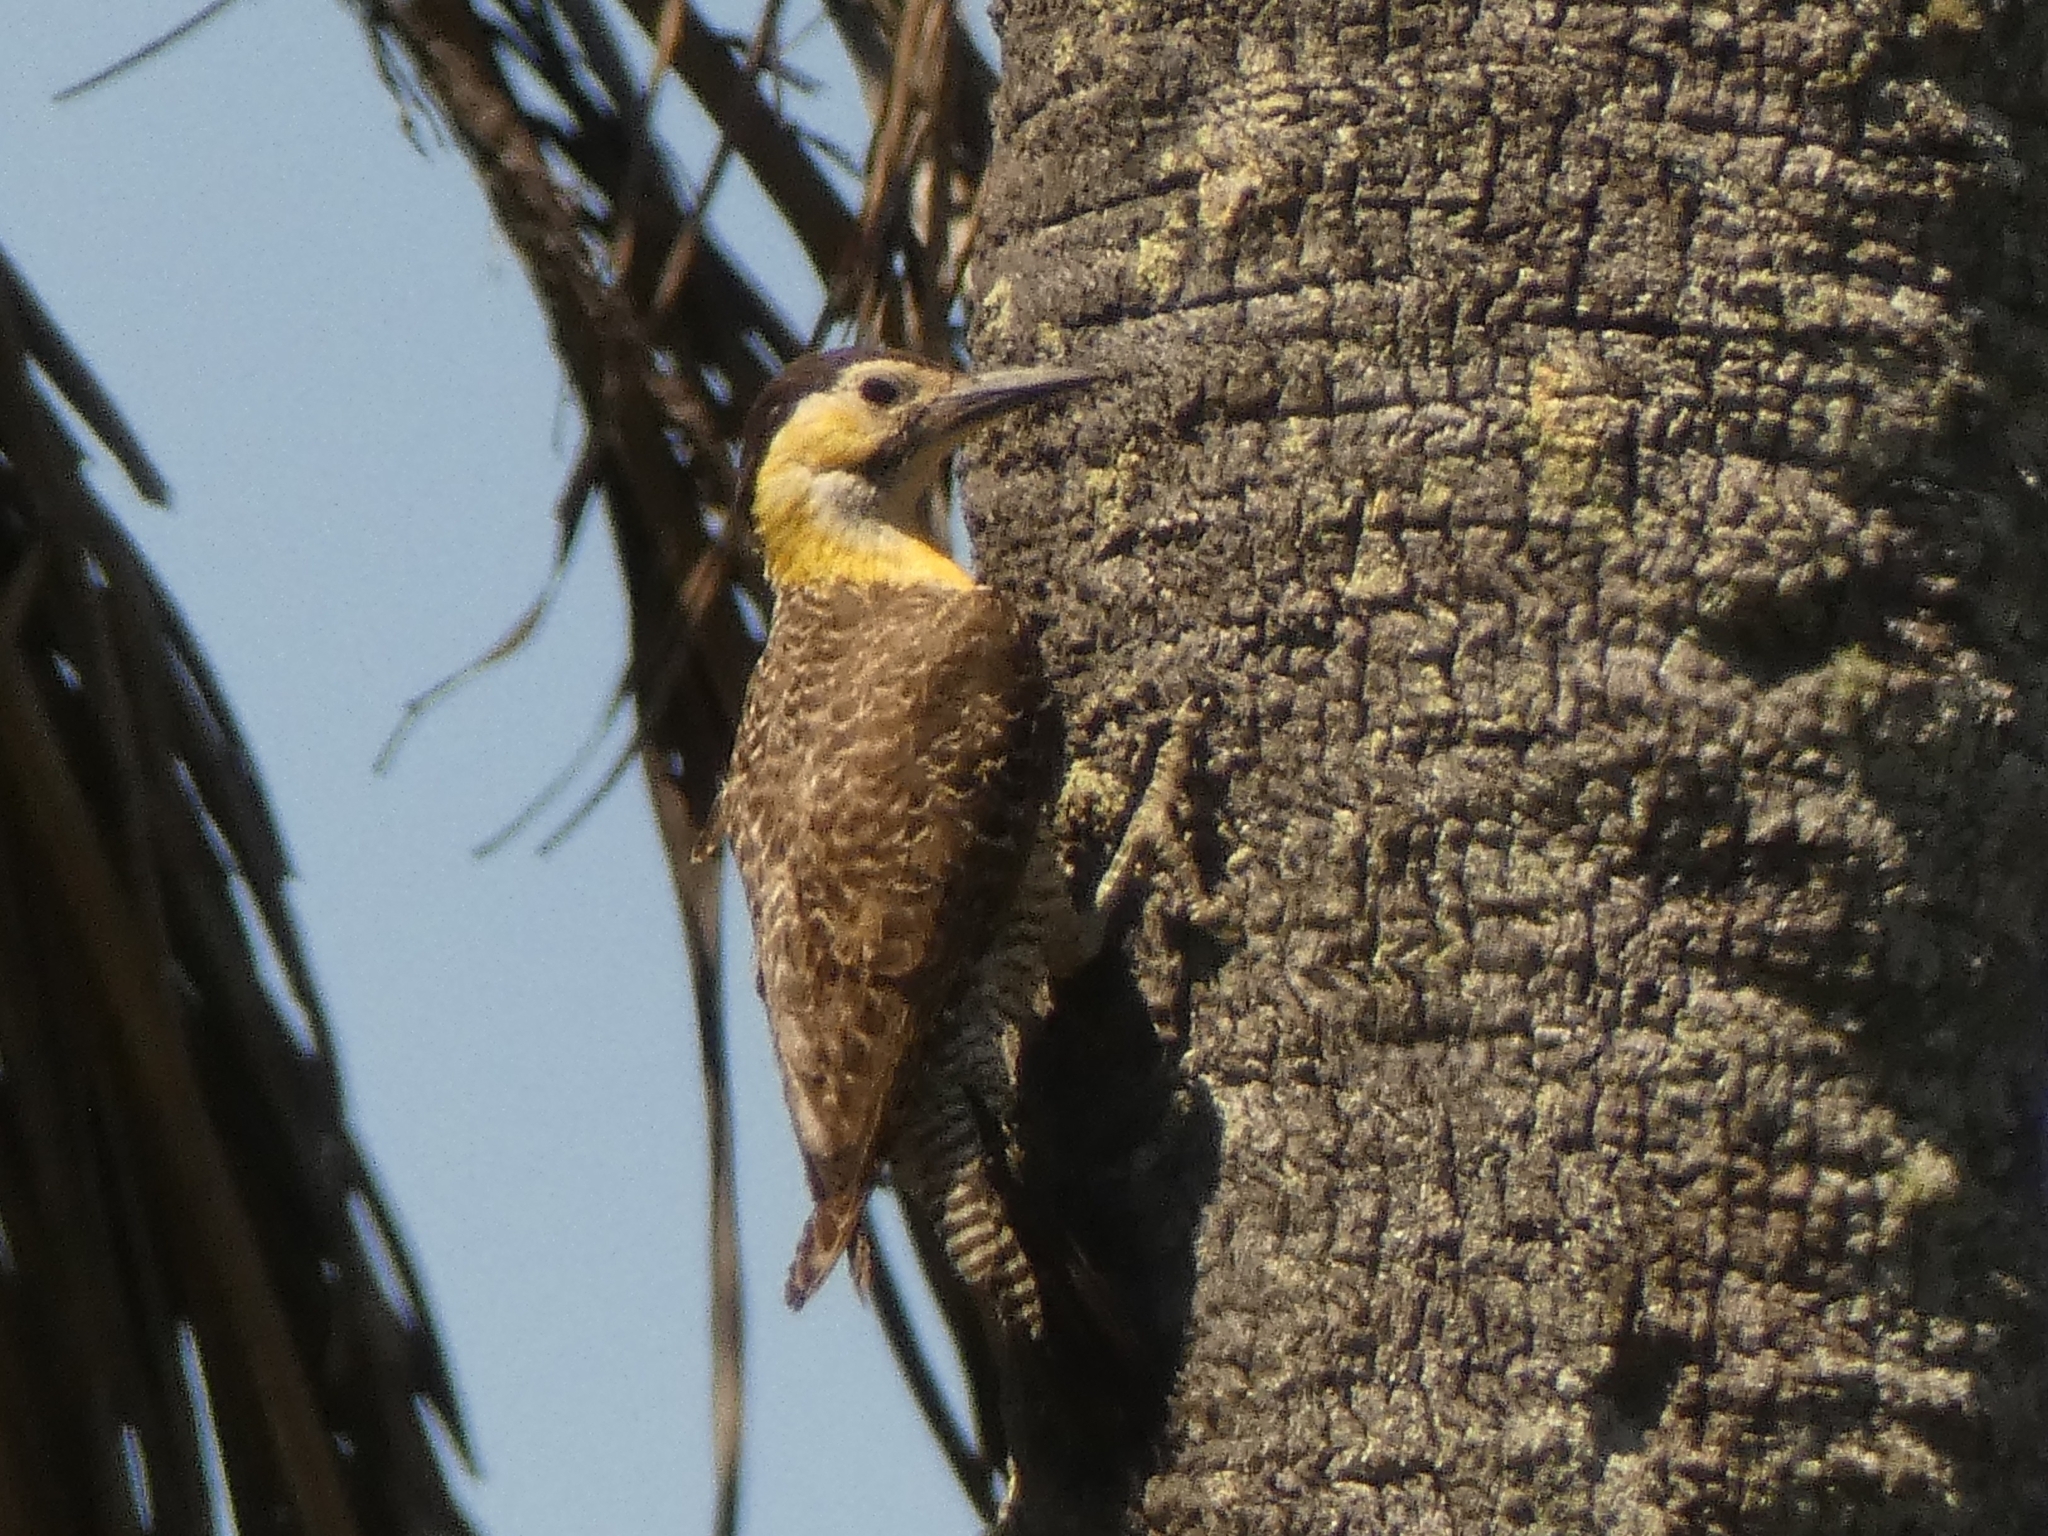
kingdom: Animalia
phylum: Chordata
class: Aves
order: Piciformes
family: Picidae
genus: Colaptes
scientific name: Colaptes campestris
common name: Campo flicker
